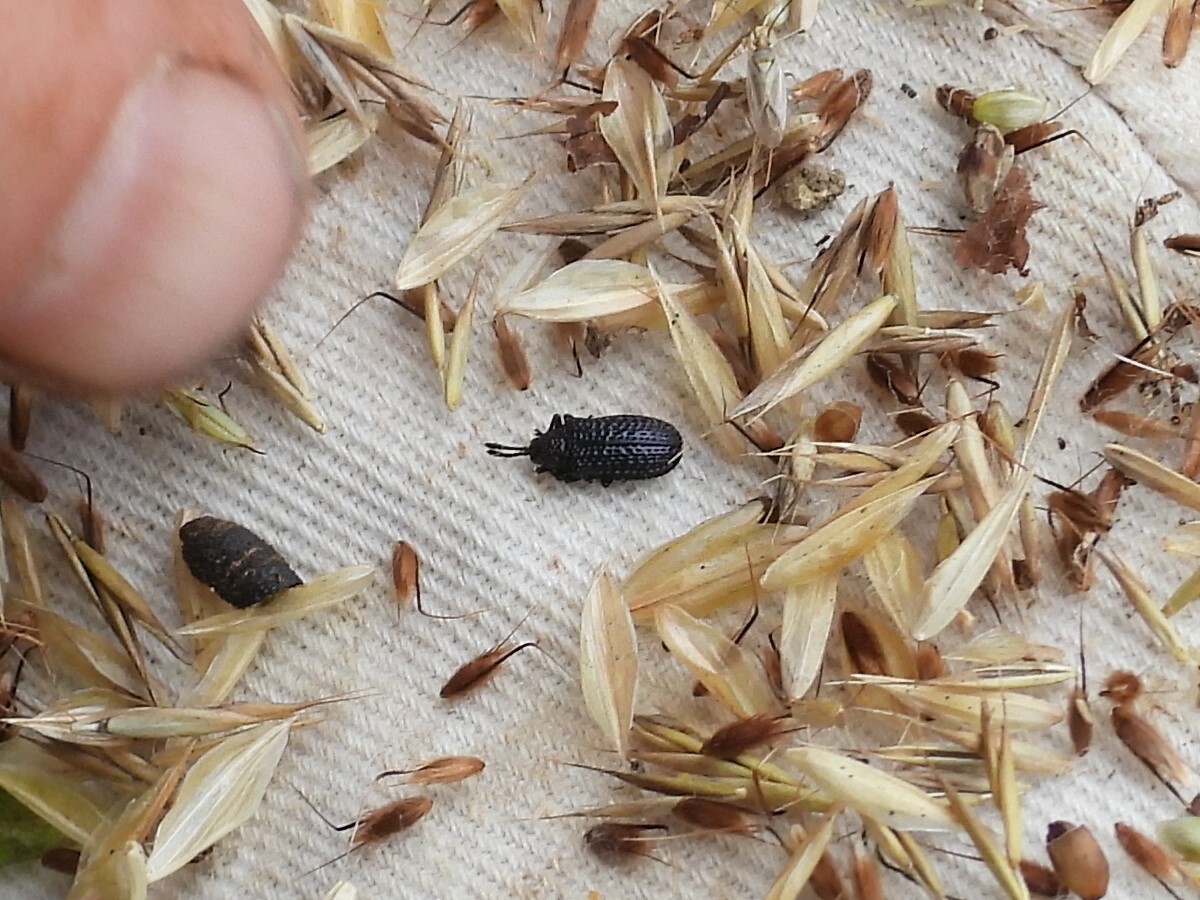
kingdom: Animalia
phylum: Arthropoda
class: Insecta
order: Coleoptera
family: Chrysomelidae
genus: Microrhopala
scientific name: Microrhopala excavata
